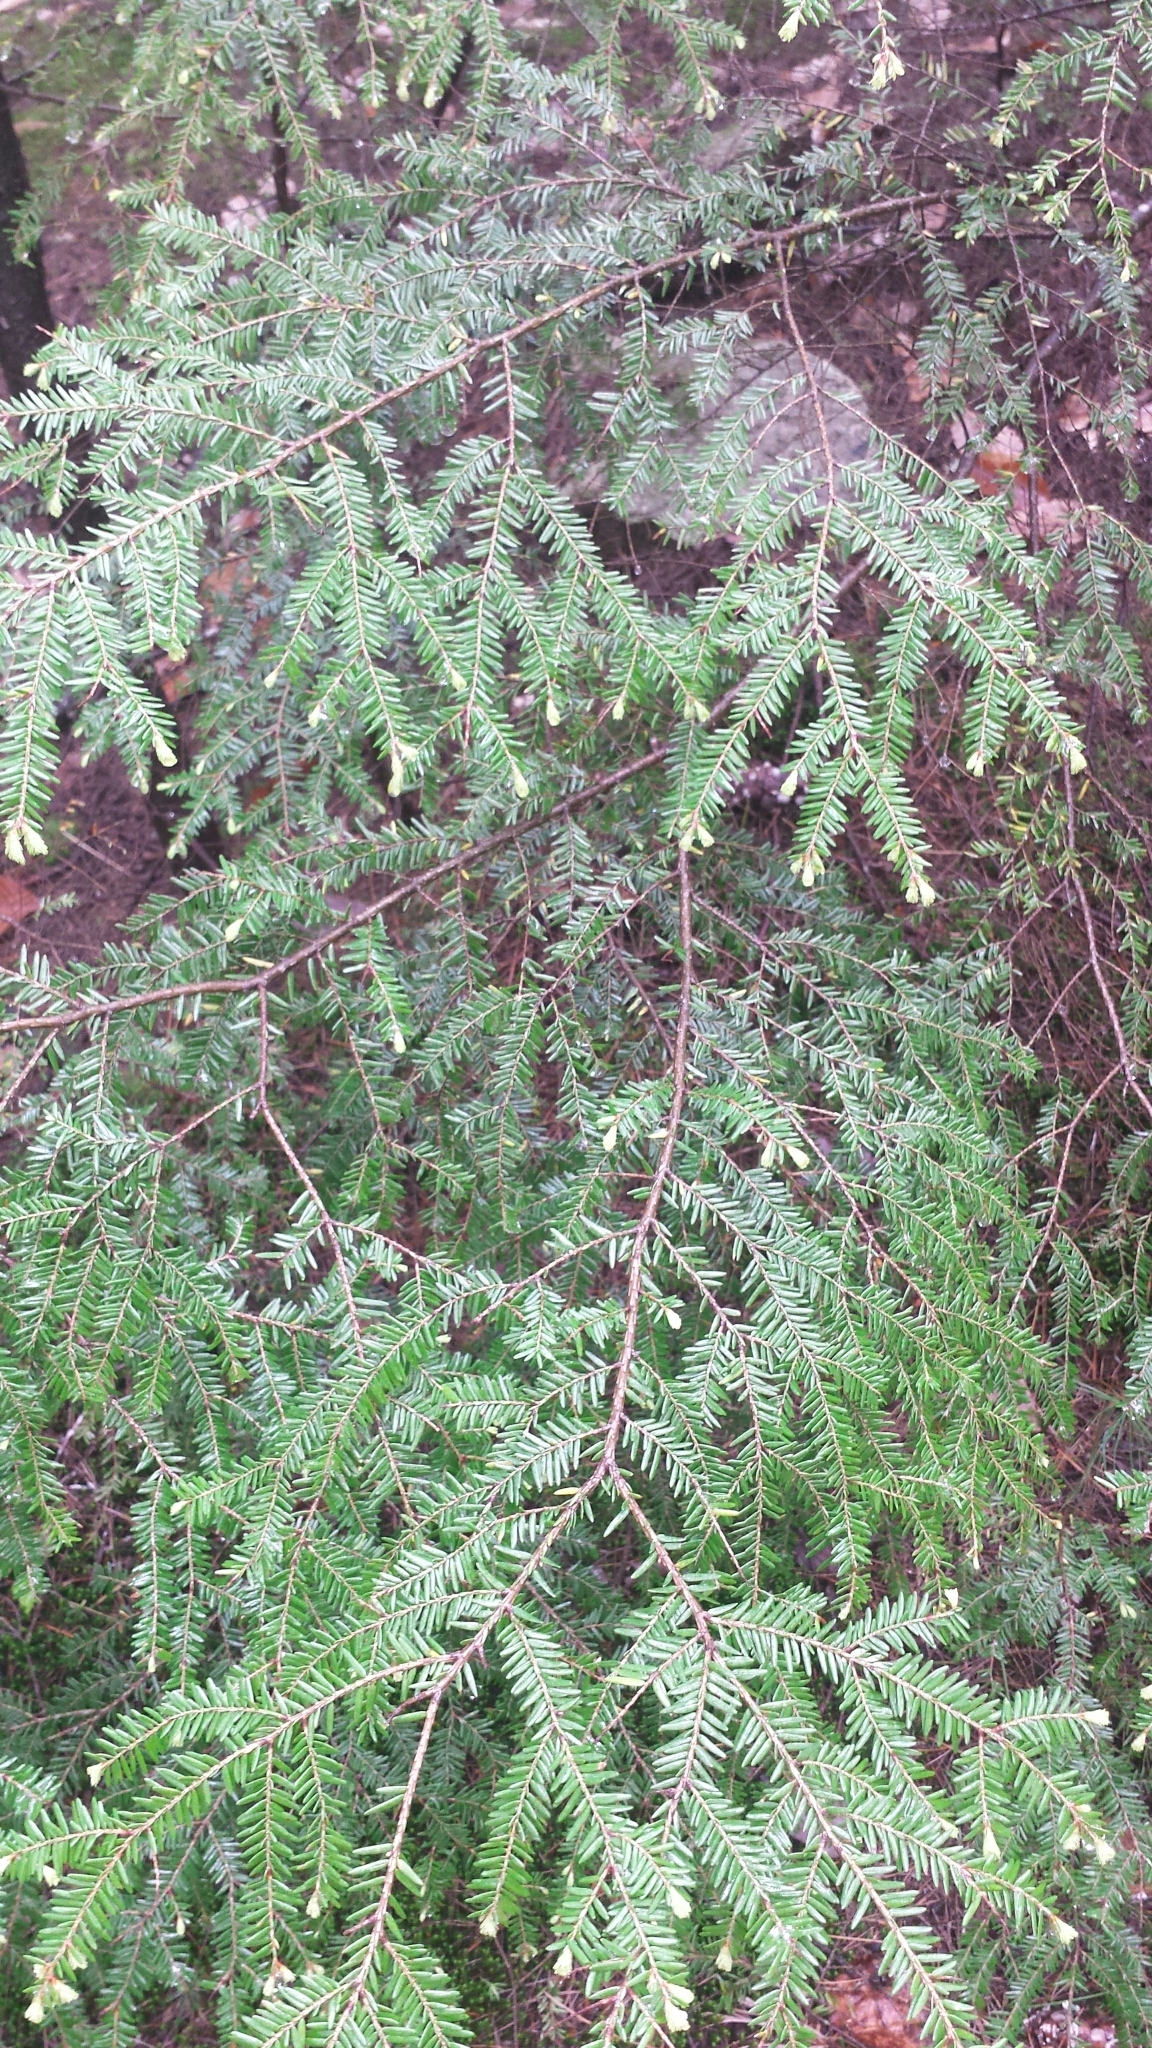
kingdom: Plantae
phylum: Tracheophyta
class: Pinopsida
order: Pinales
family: Pinaceae
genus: Tsuga
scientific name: Tsuga canadensis
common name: Eastern hemlock
